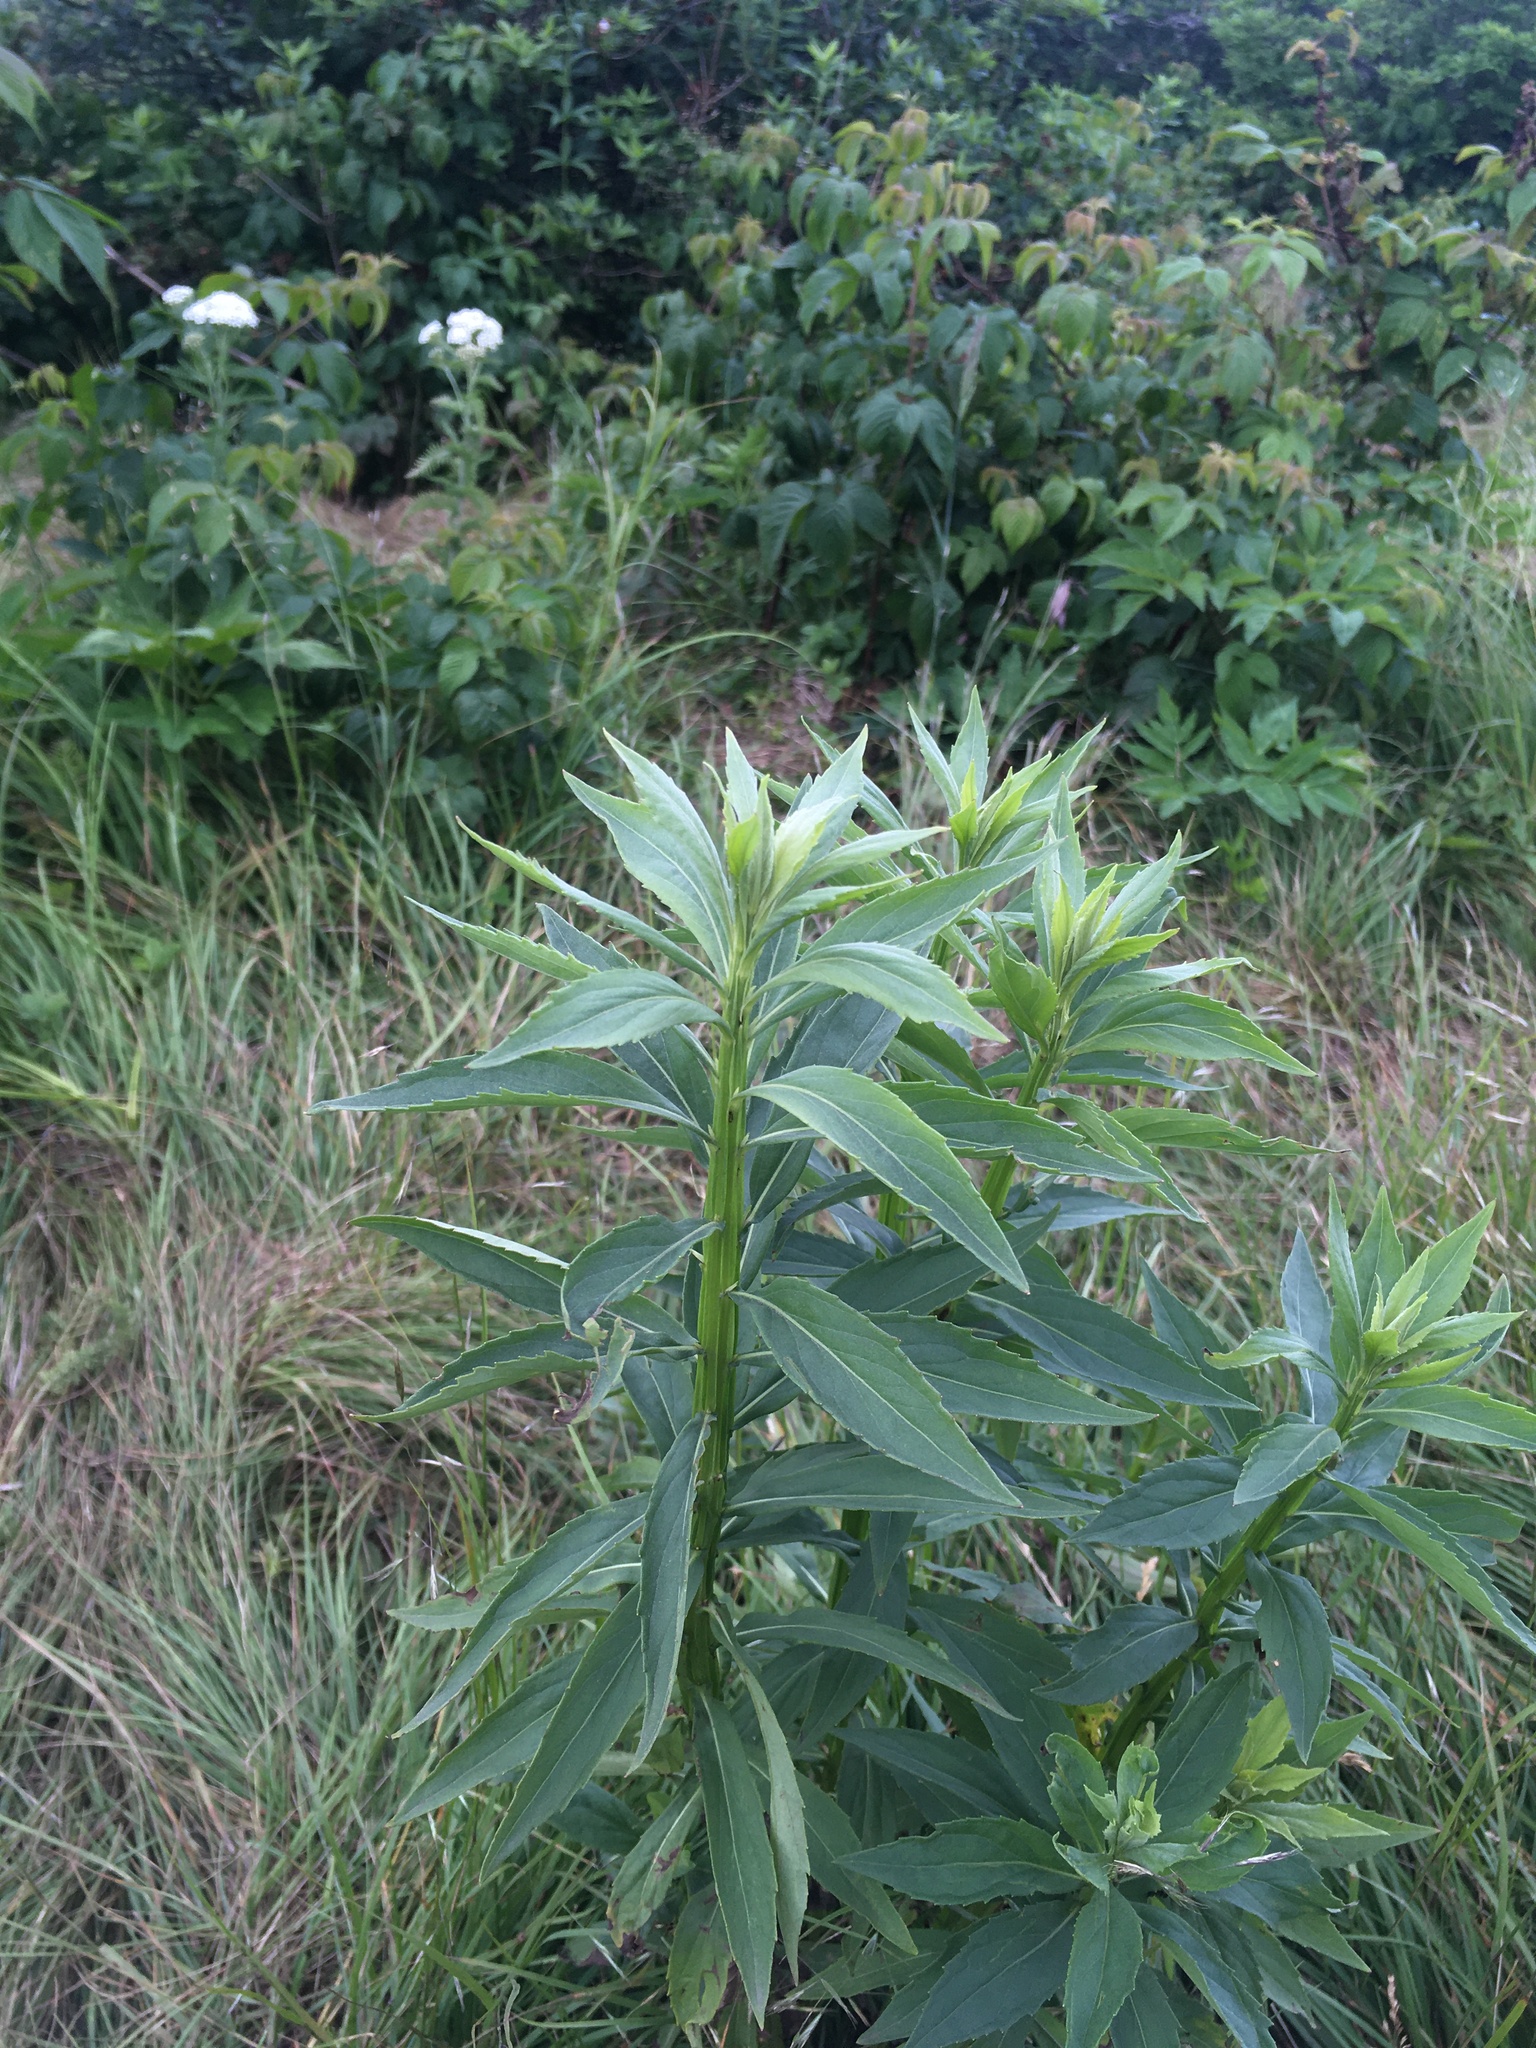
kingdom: Plantae
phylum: Tracheophyta
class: Magnoliopsida
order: Asterales
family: Asteraceae
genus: Verbesina
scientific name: Verbesina alternifolia
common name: Wingstem
